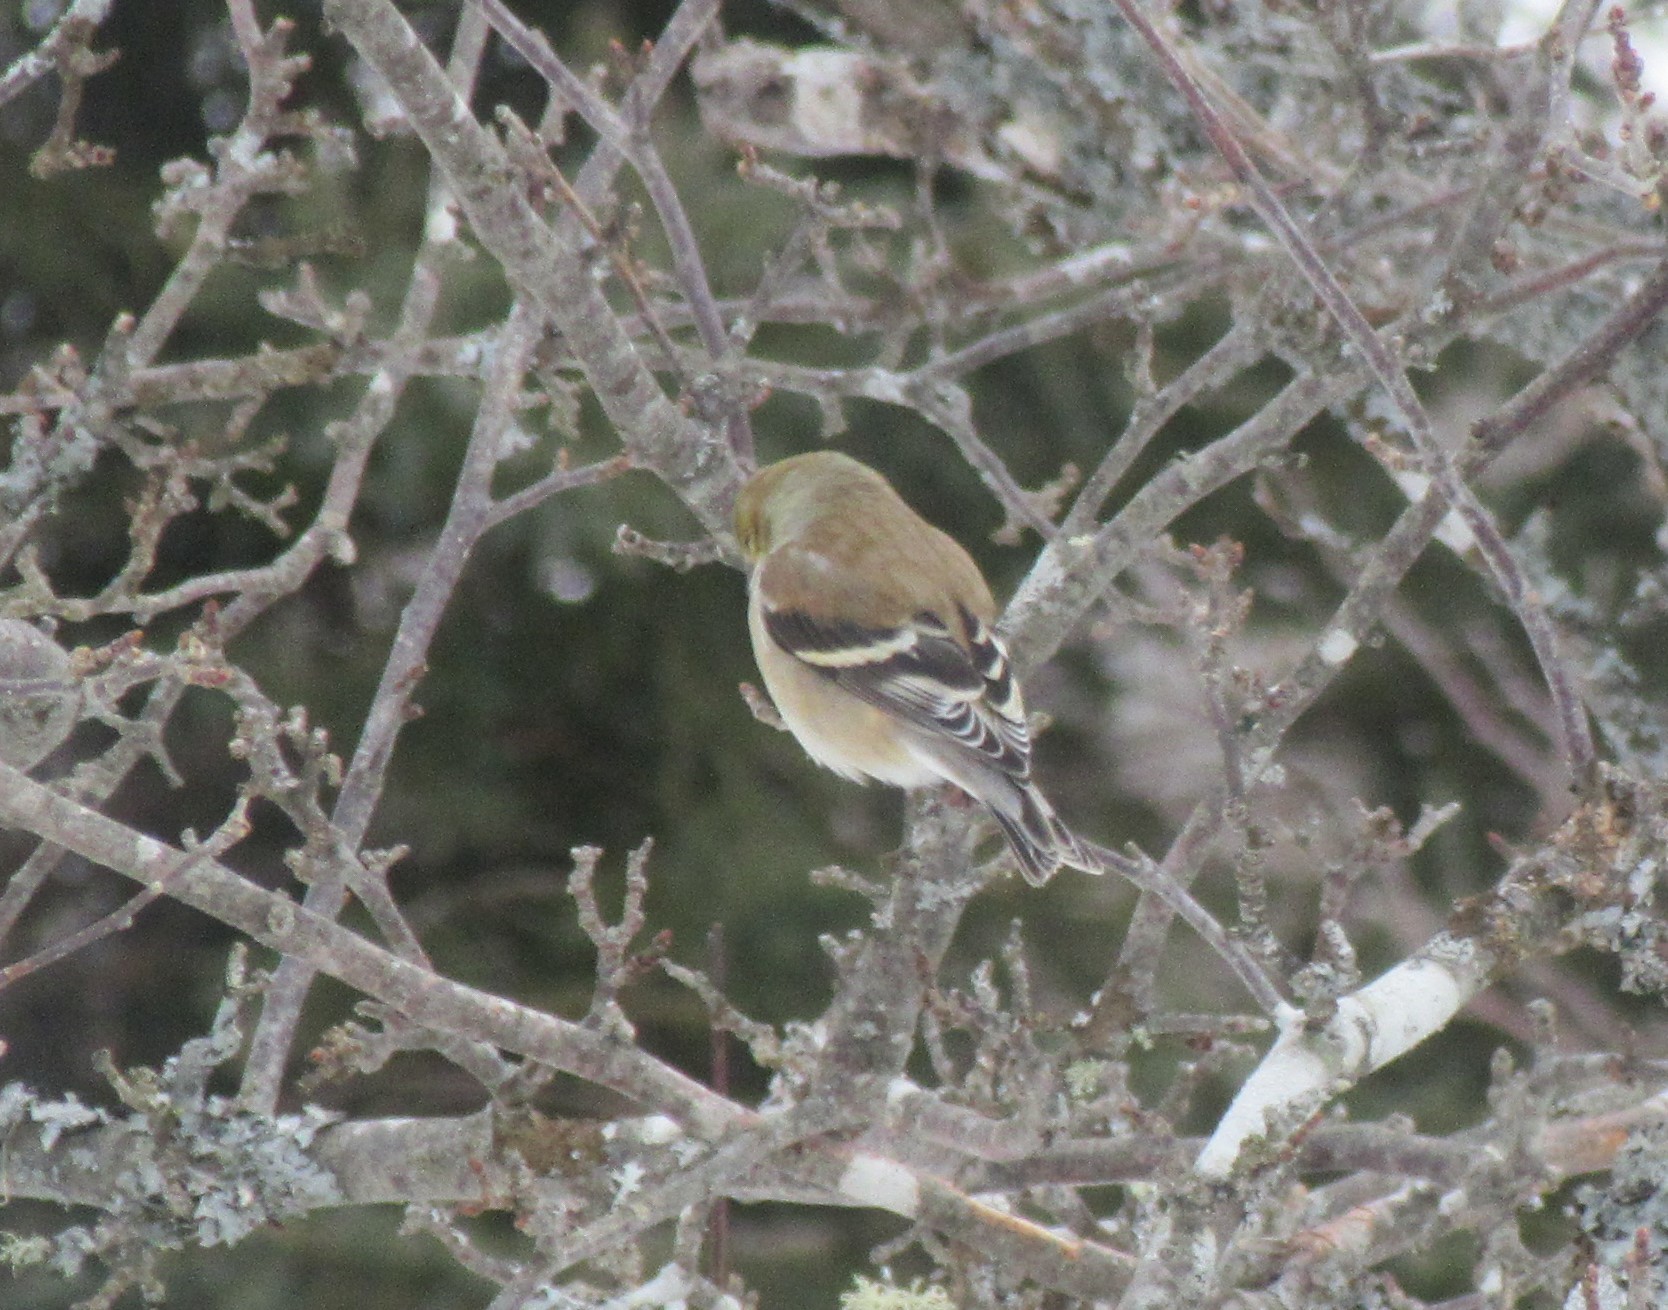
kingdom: Animalia
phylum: Chordata
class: Aves
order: Passeriformes
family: Fringillidae
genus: Spinus
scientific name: Spinus tristis
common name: American goldfinch
